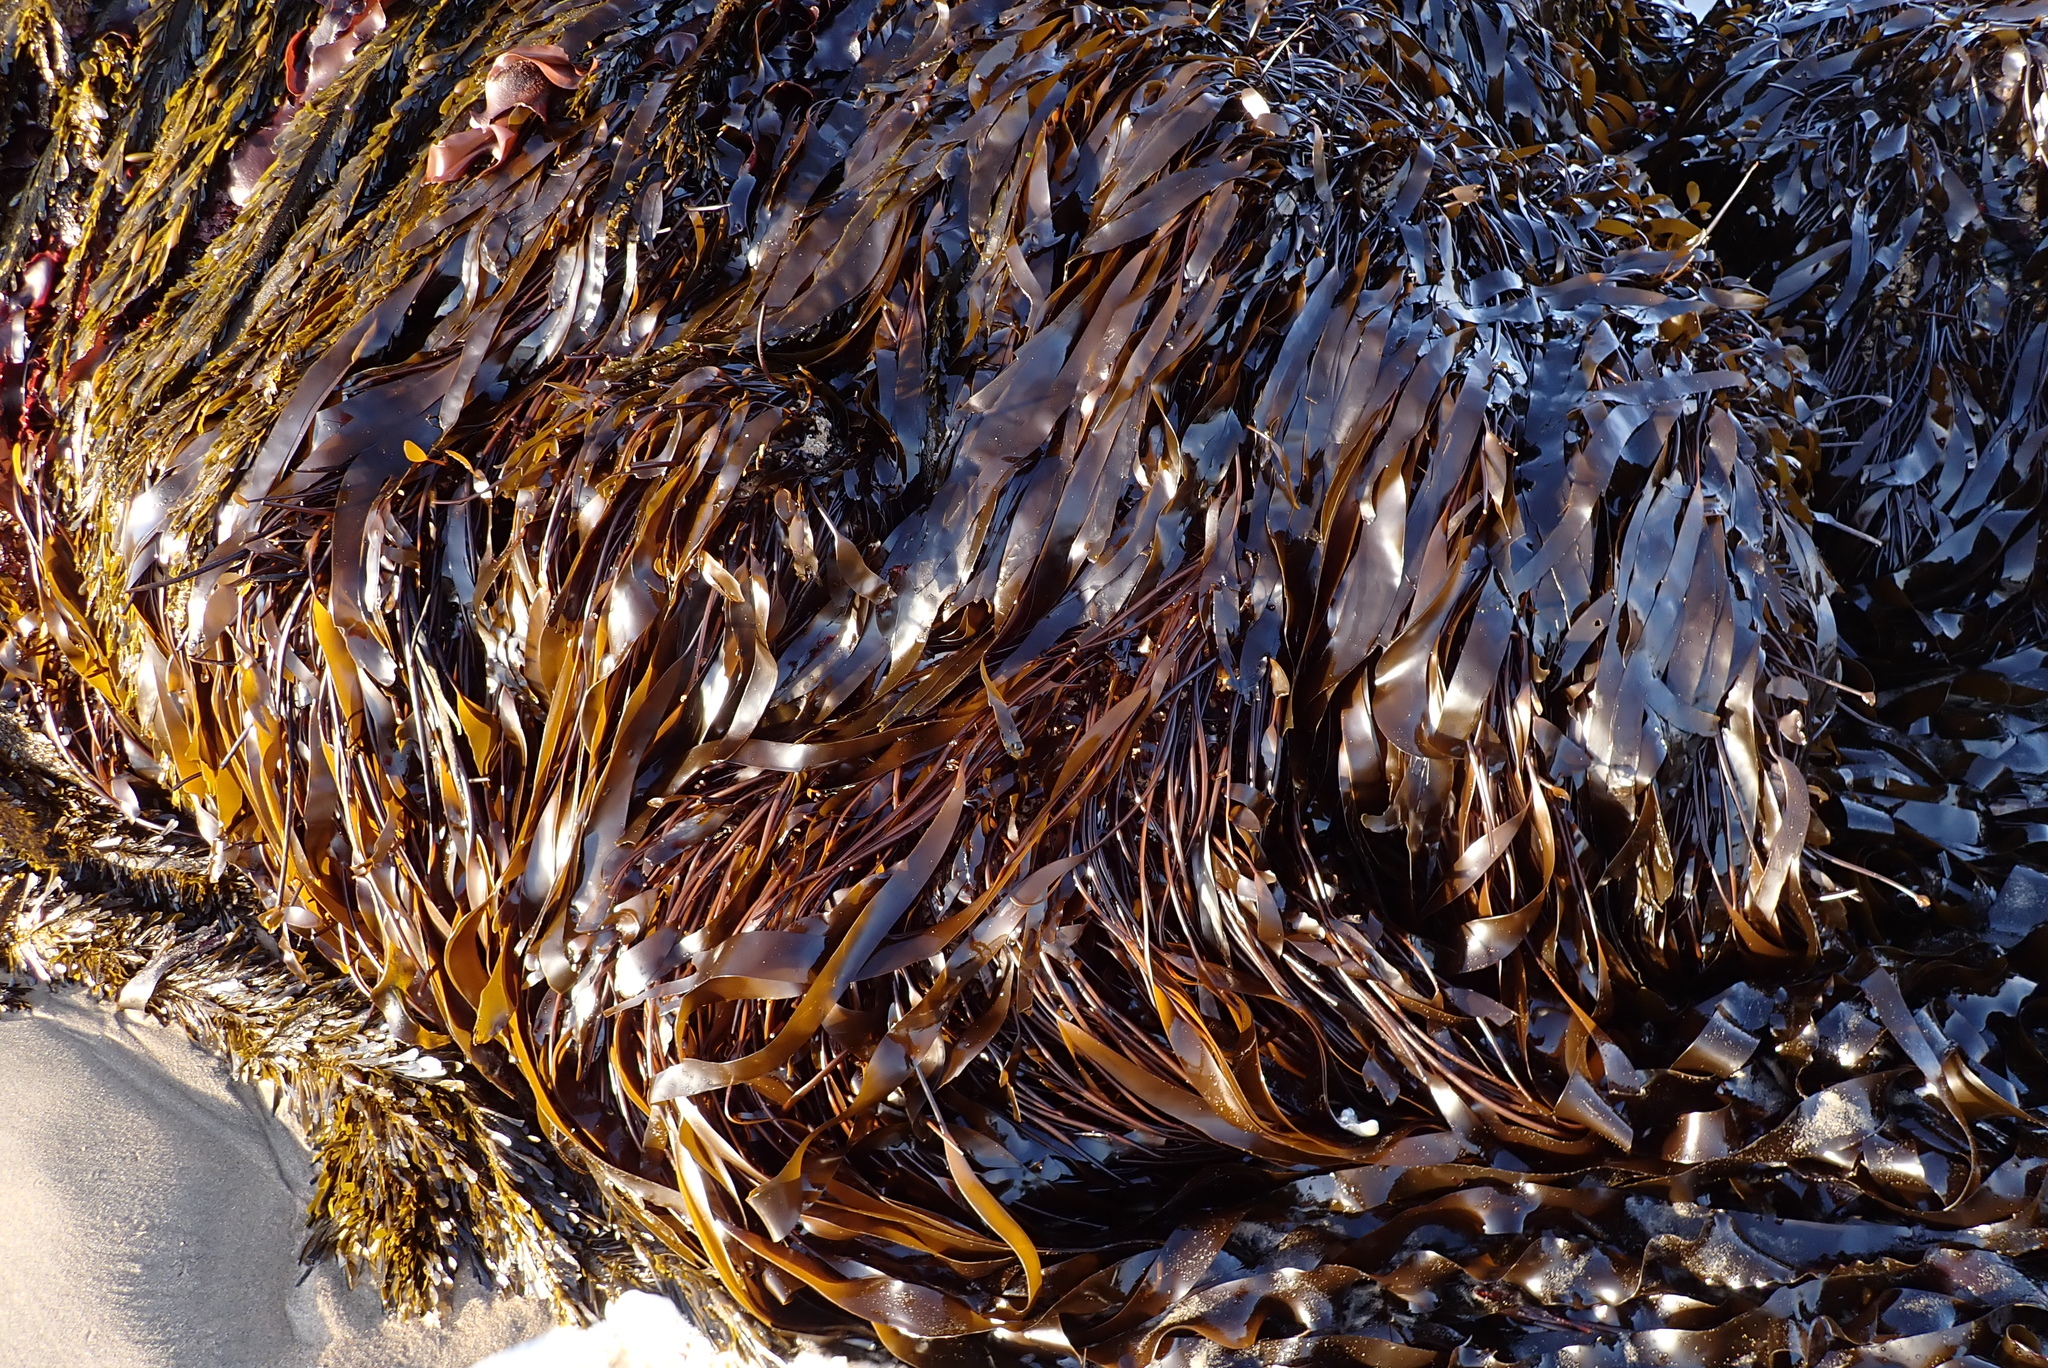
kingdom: Chromista
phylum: Ochrophyta
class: Phaeophyceae
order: Laminariales
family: Laminariaceae
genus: Laminaria
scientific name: Laminaria sinclairii
